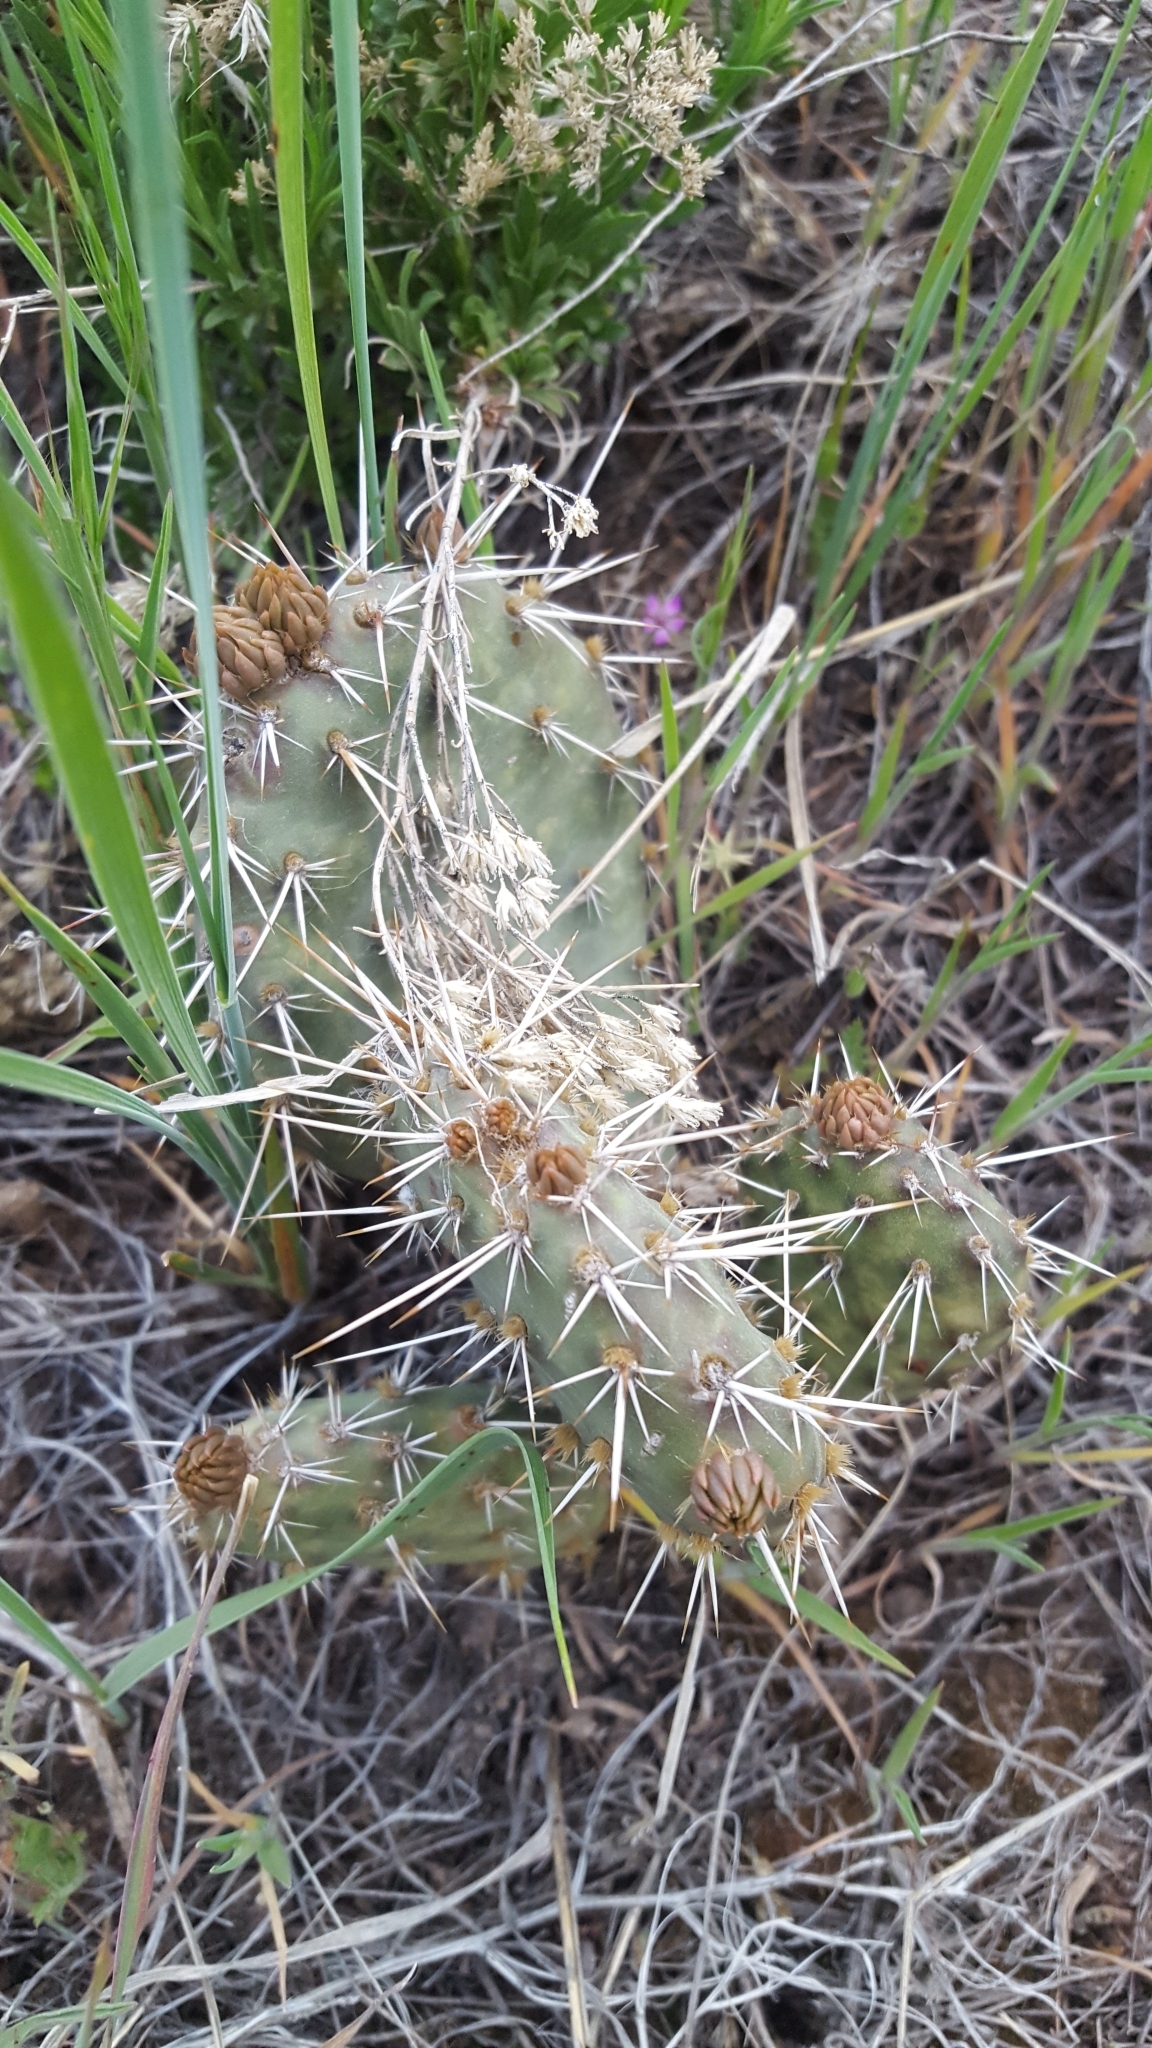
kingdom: Plantae
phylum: Tracheophyta
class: Magnoliopsida
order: Caryophyllales
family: Cactaceae
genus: Opuntia
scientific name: Opuntia polyacantha
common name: Plains prickly-pear
